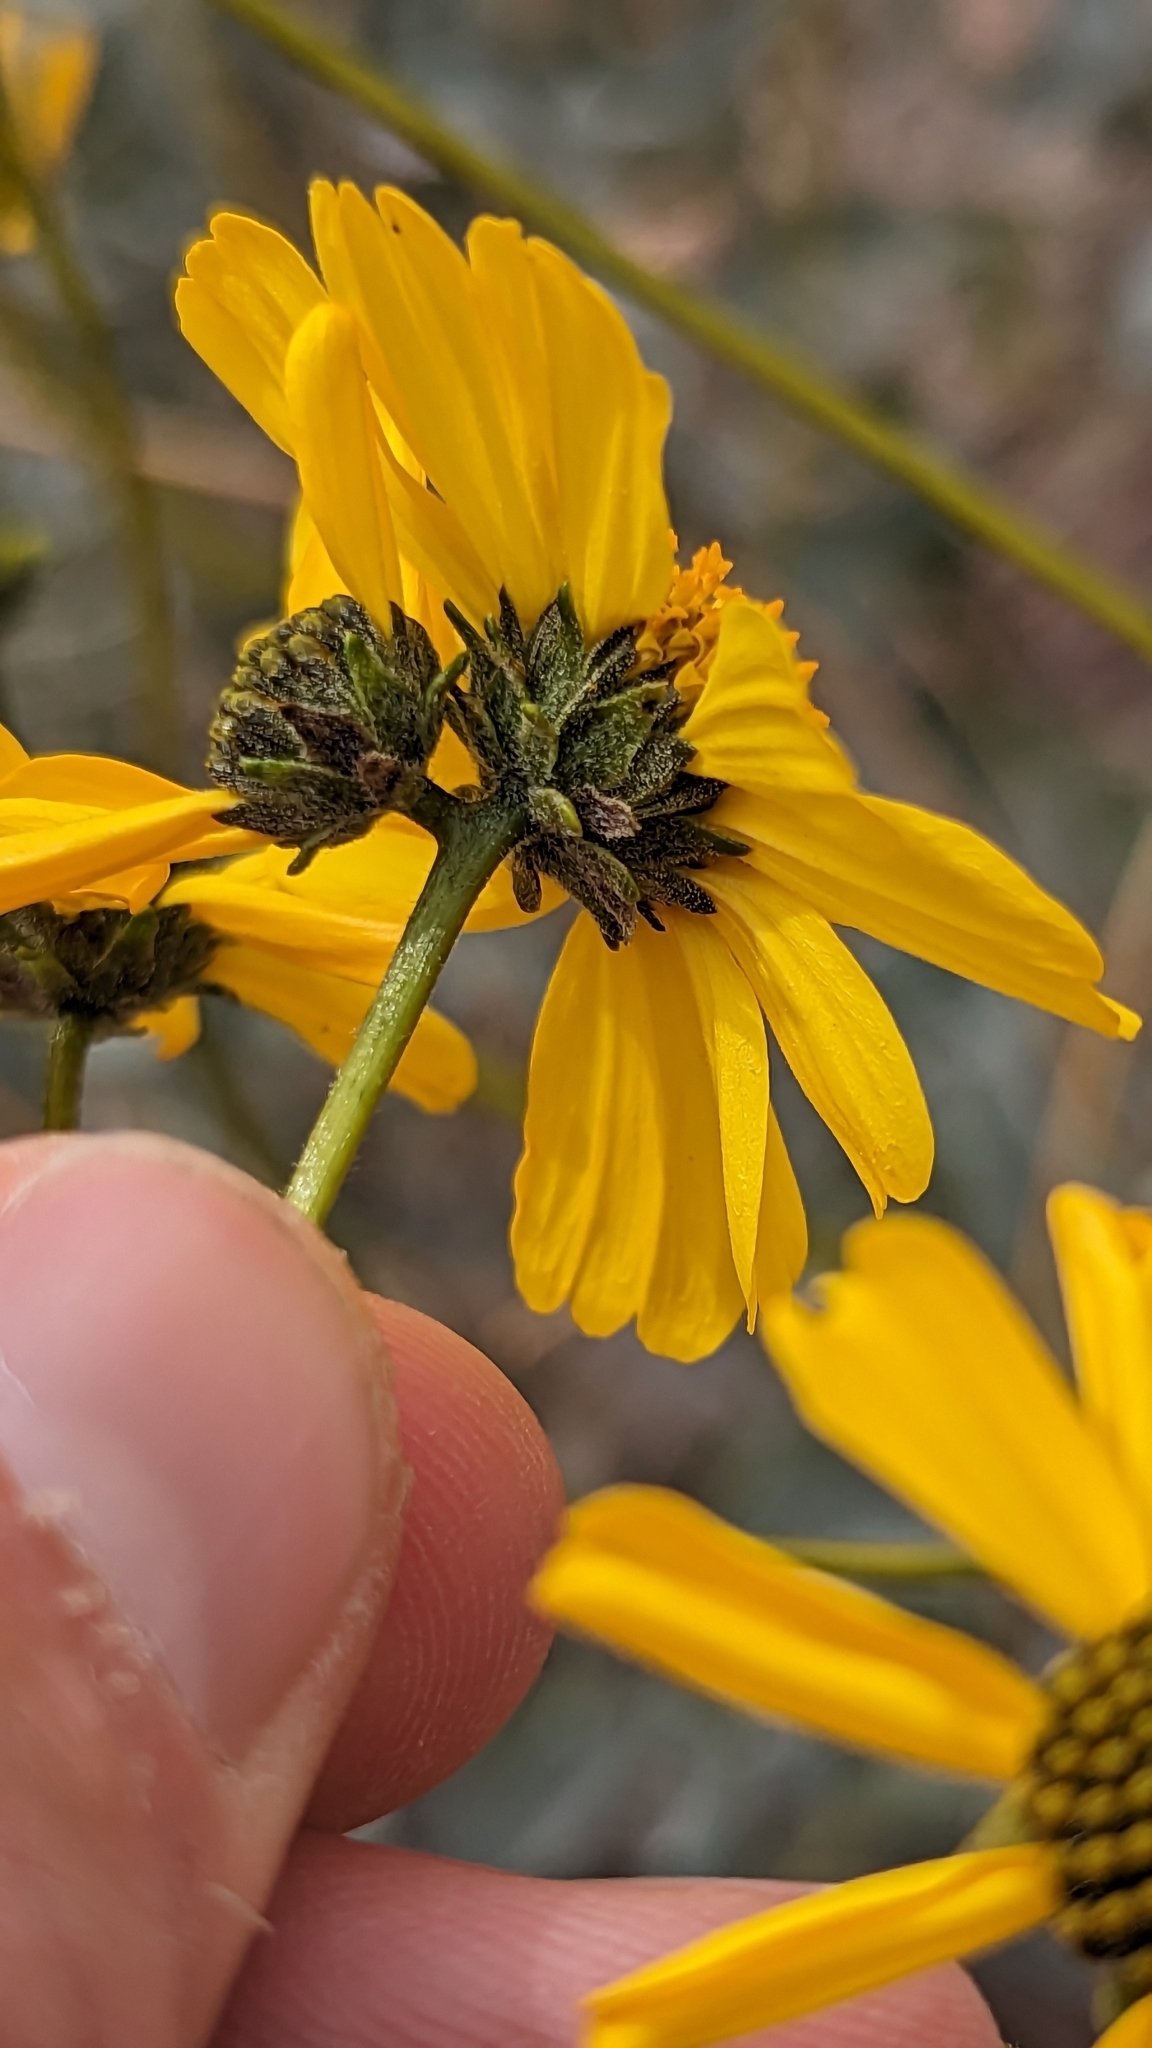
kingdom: Plantae
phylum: Tracheophyta
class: Magnoliopsida
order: Asterales
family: Asteraceae
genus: Encelia
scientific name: Encelia farinosa
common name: Brittlebush
